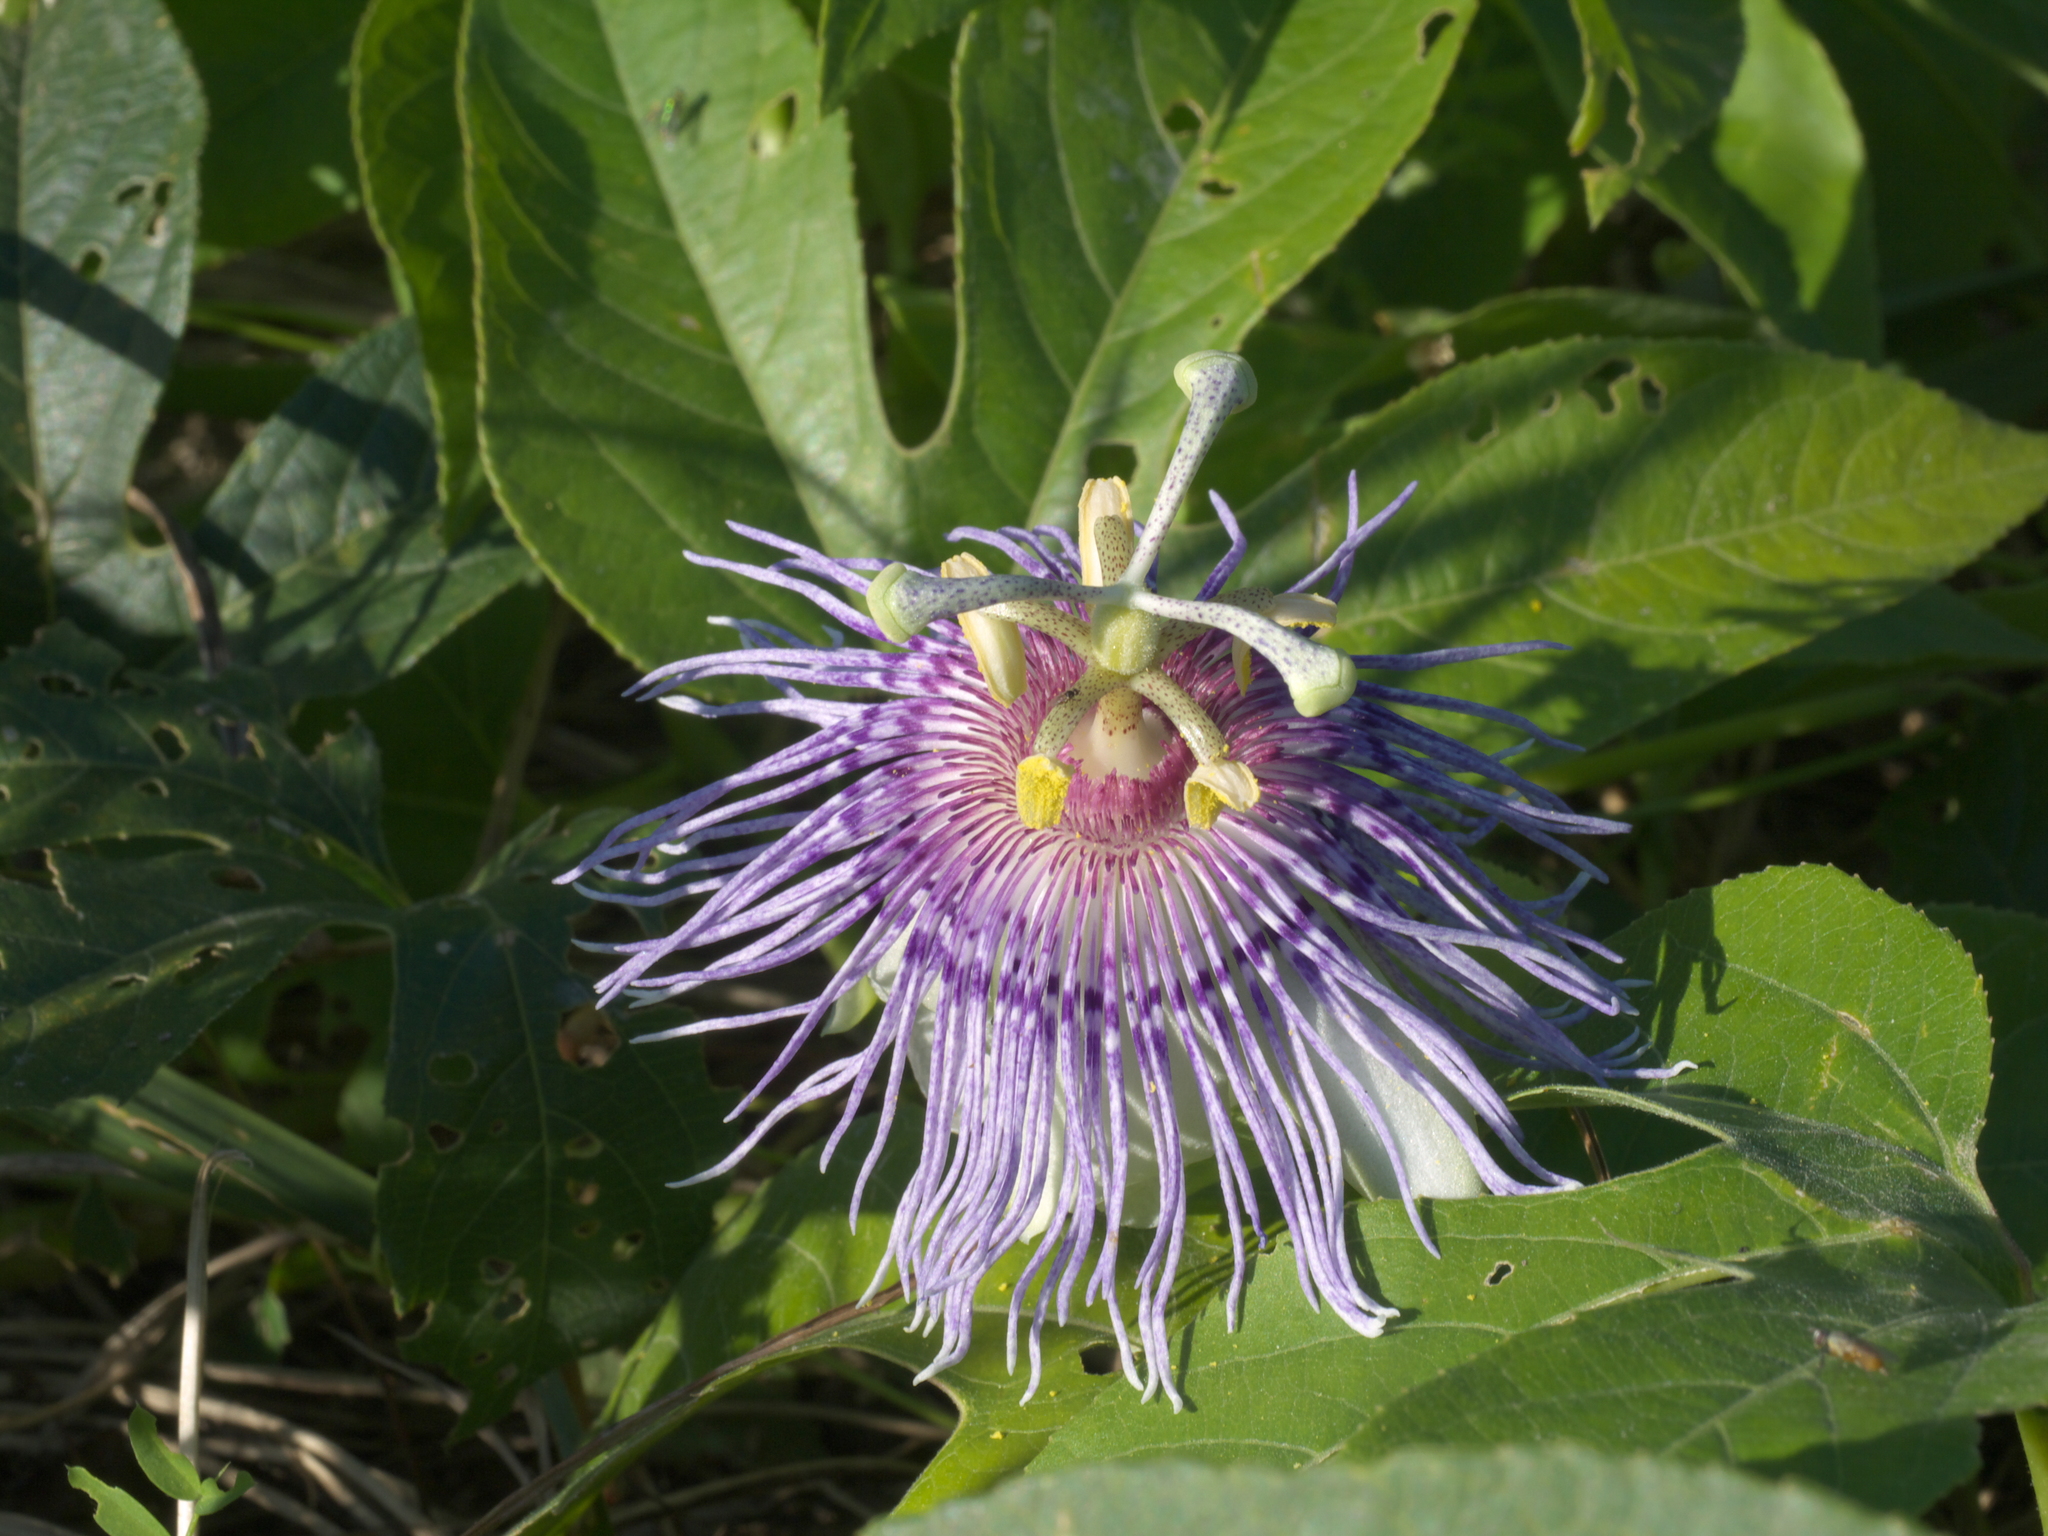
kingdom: Plantae
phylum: Tracheophyta
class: Magnoliopsida
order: Malpighiales
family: Passifloraceae
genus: Passiflora
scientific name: Passiflora incarnata
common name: Apricot-vine
